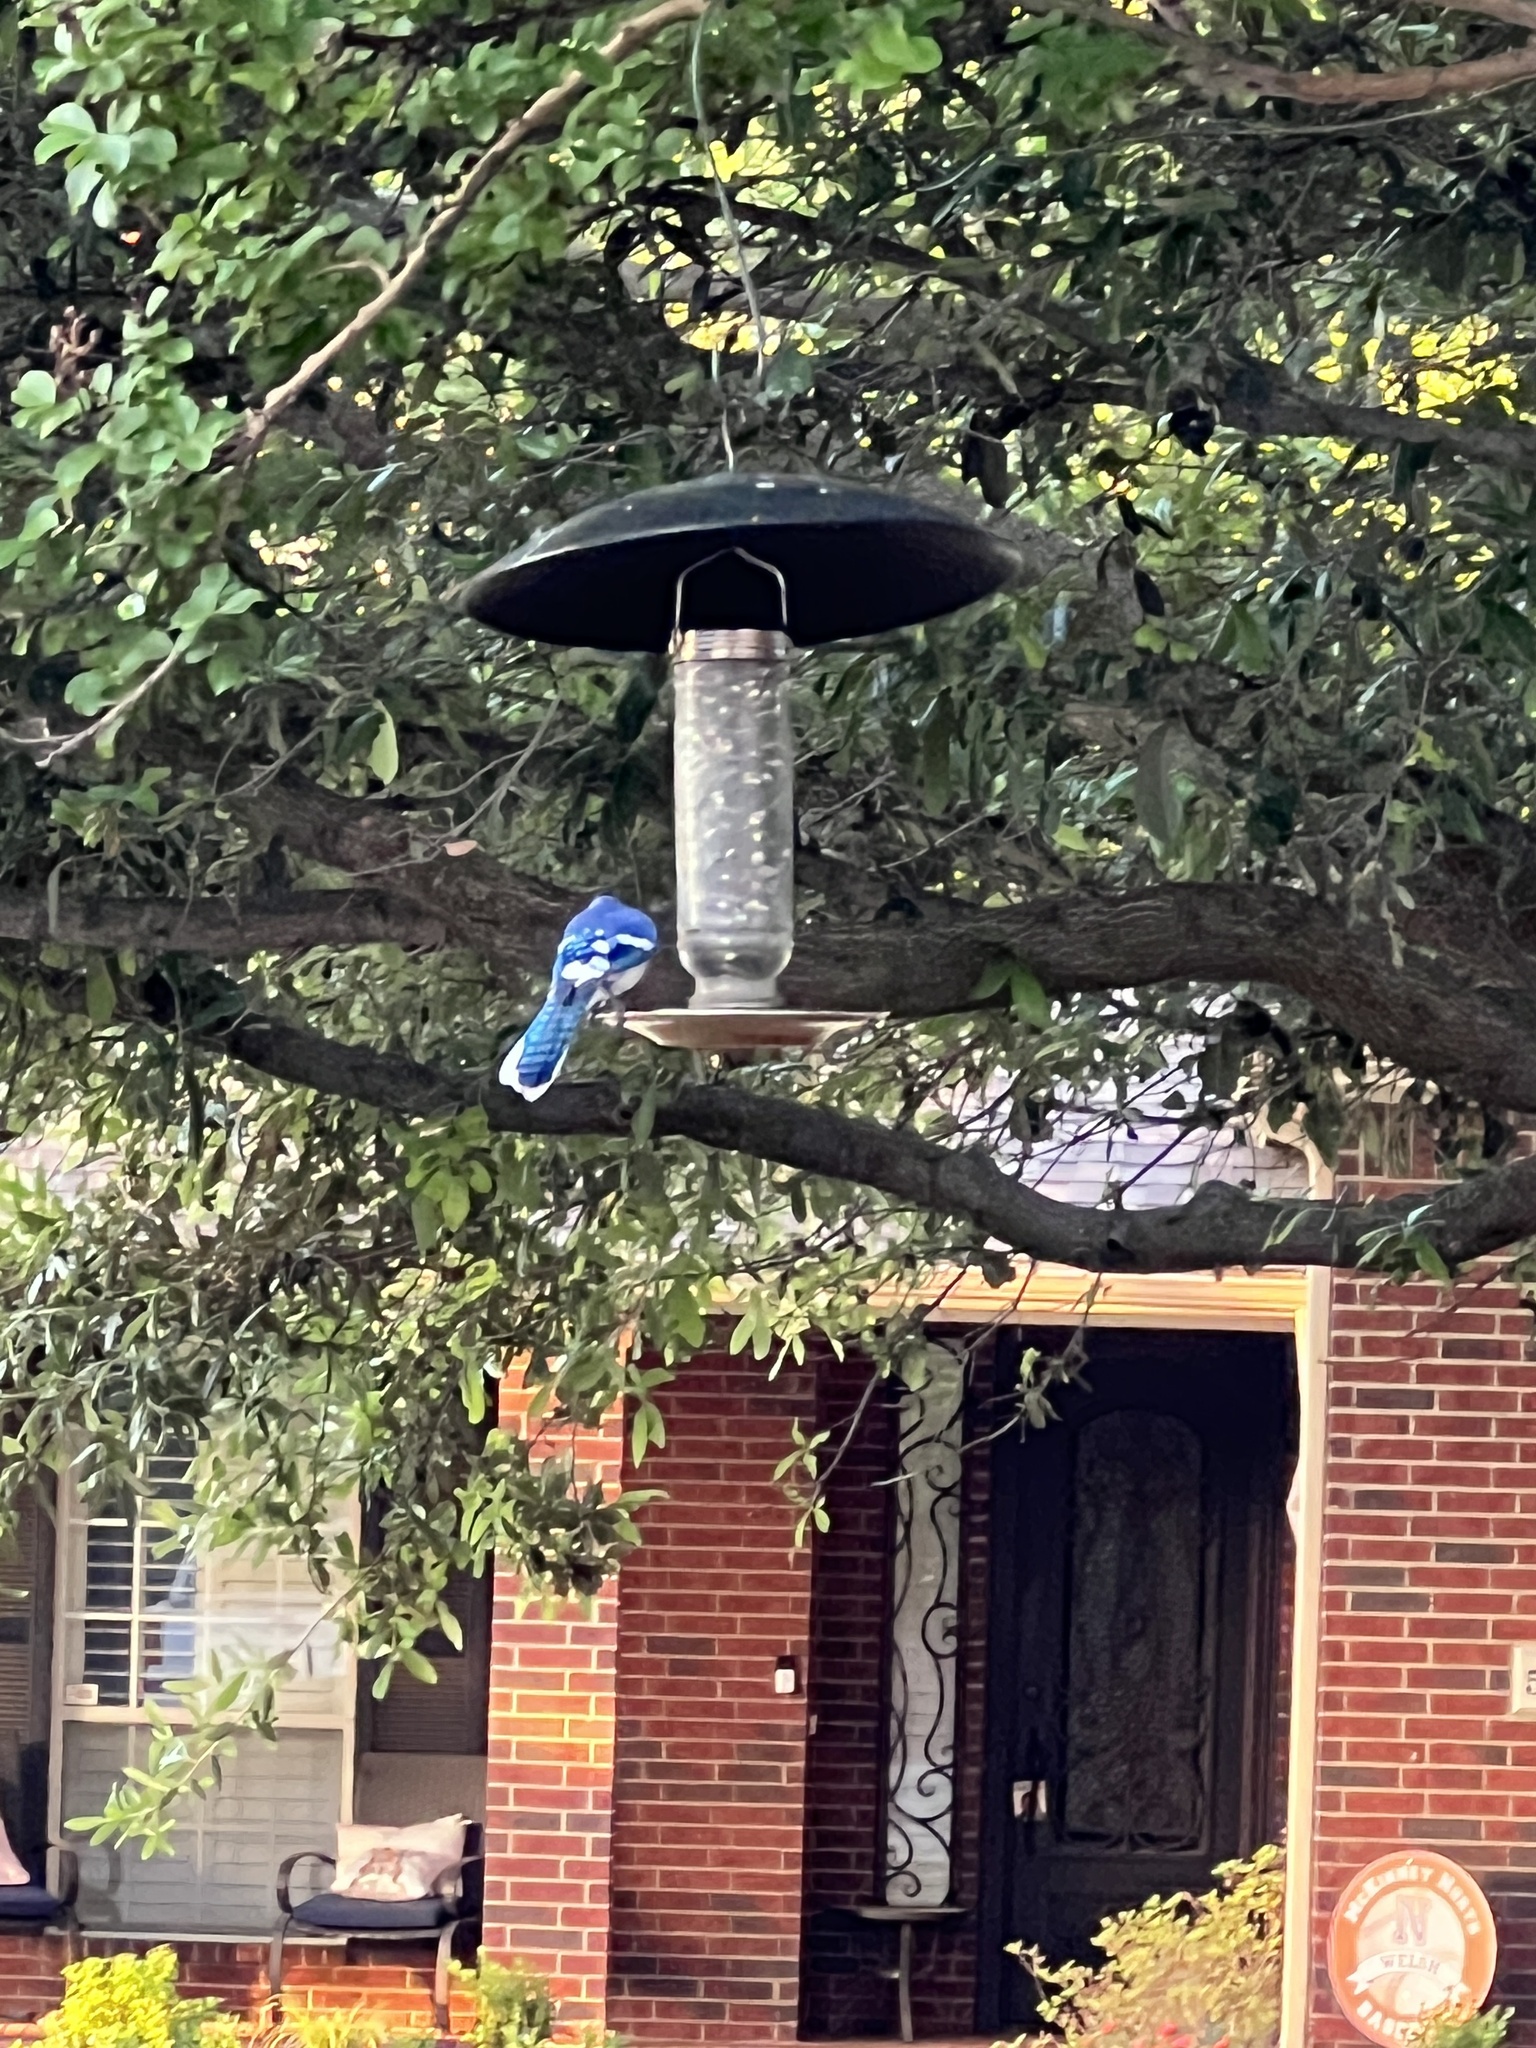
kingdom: Animalia
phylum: Chordata
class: Aves
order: Passeriformes
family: Corvidae
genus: Cyanocitta
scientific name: Cyanocitta cristata
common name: Blue jay
